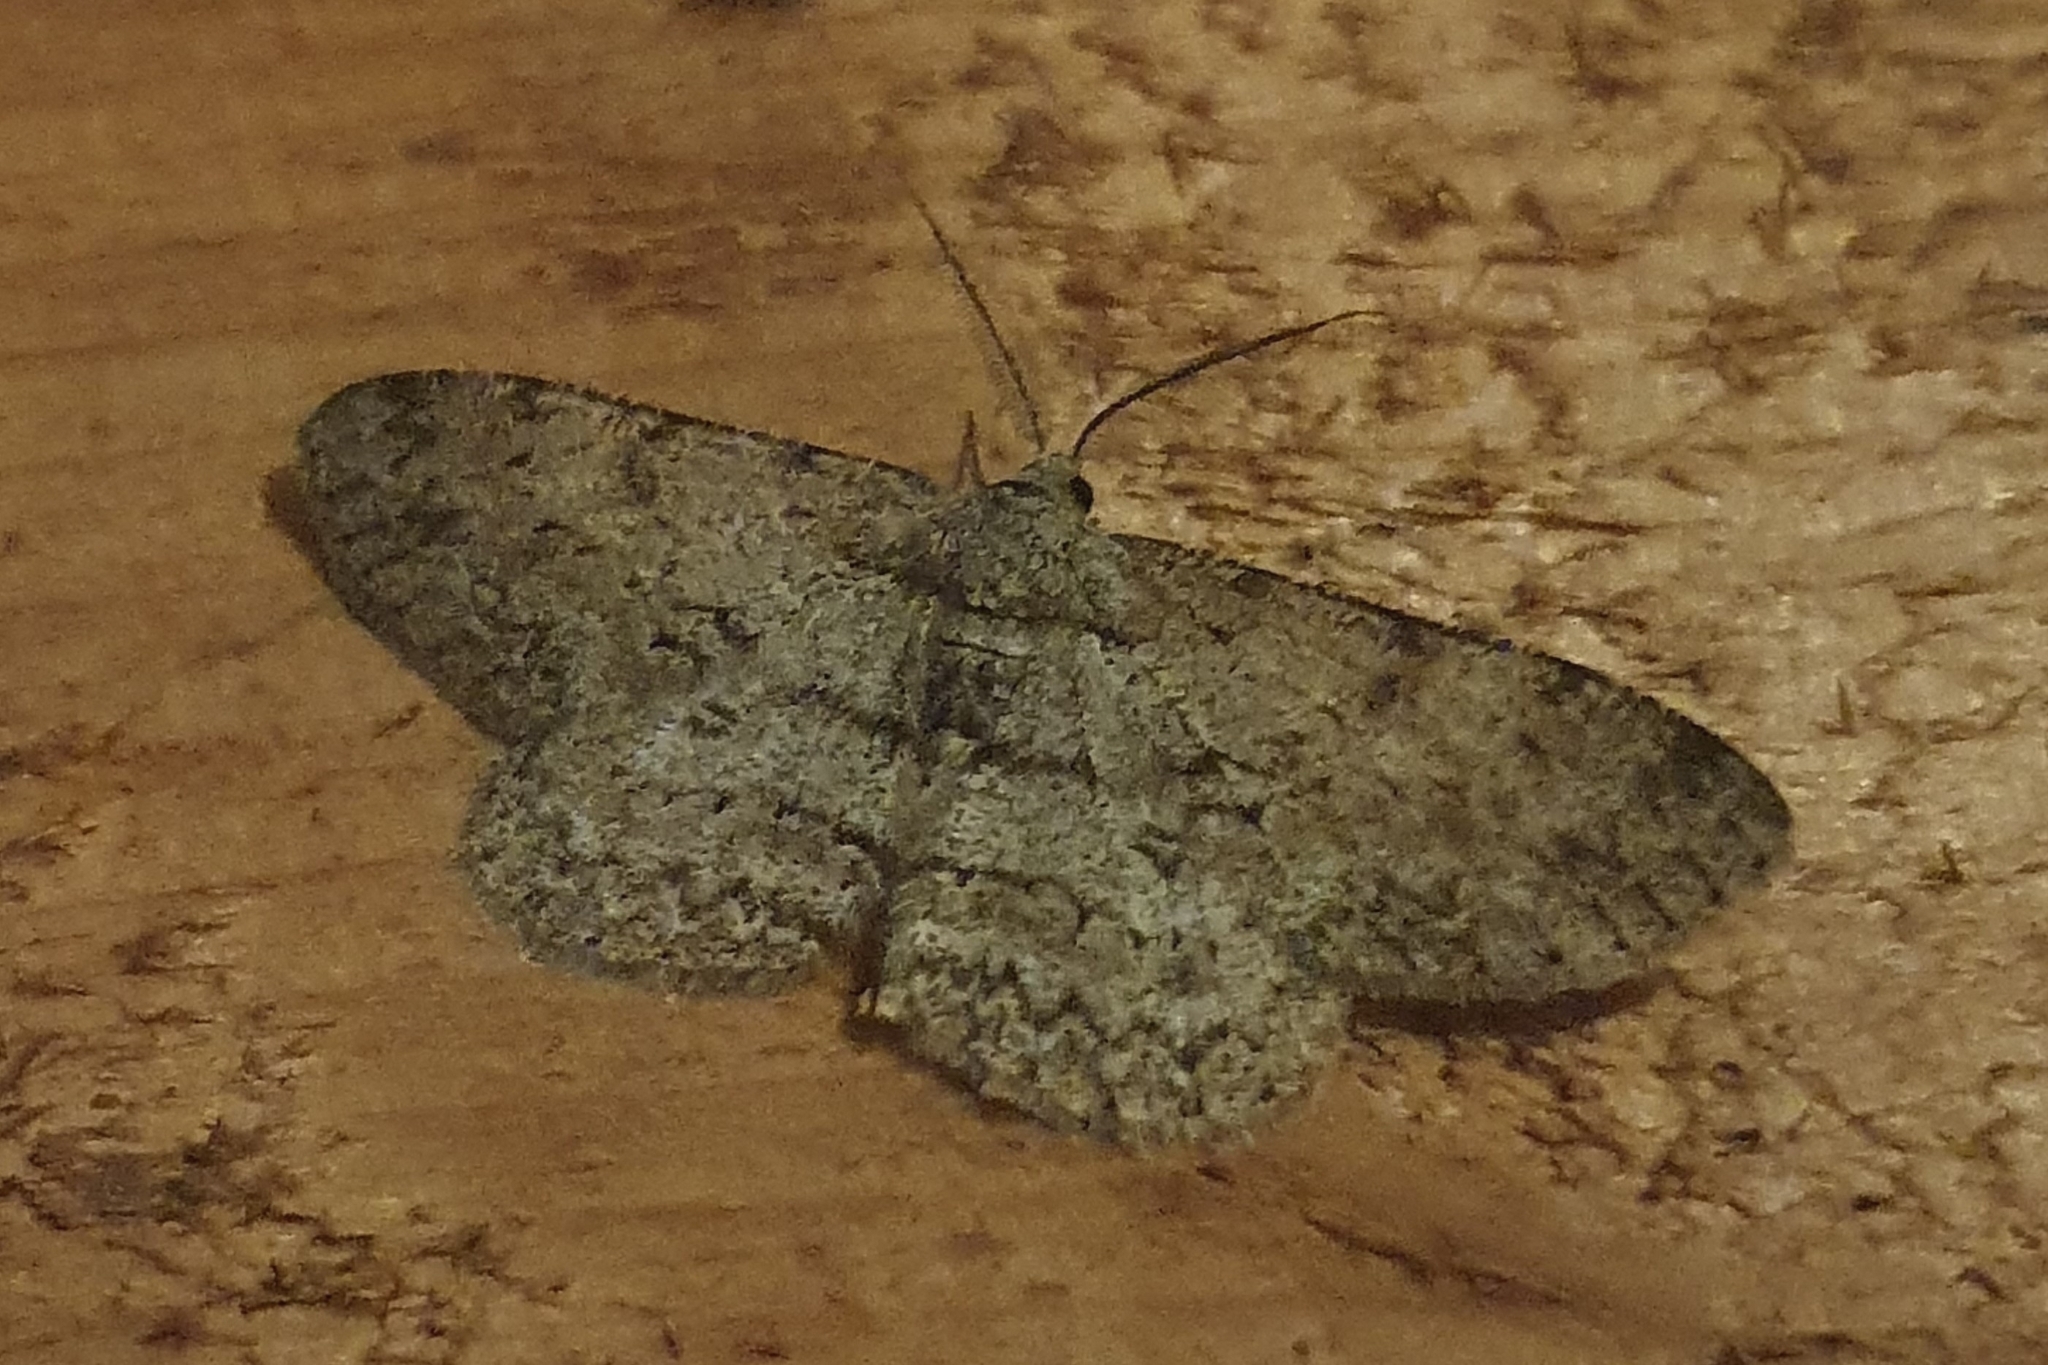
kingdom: Animalia
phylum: Arthropoda
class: Insecta
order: Lepidoptera
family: Geometridae
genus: Hypomecis
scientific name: Hypomecis punctinalis
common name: Pale oak beauty
